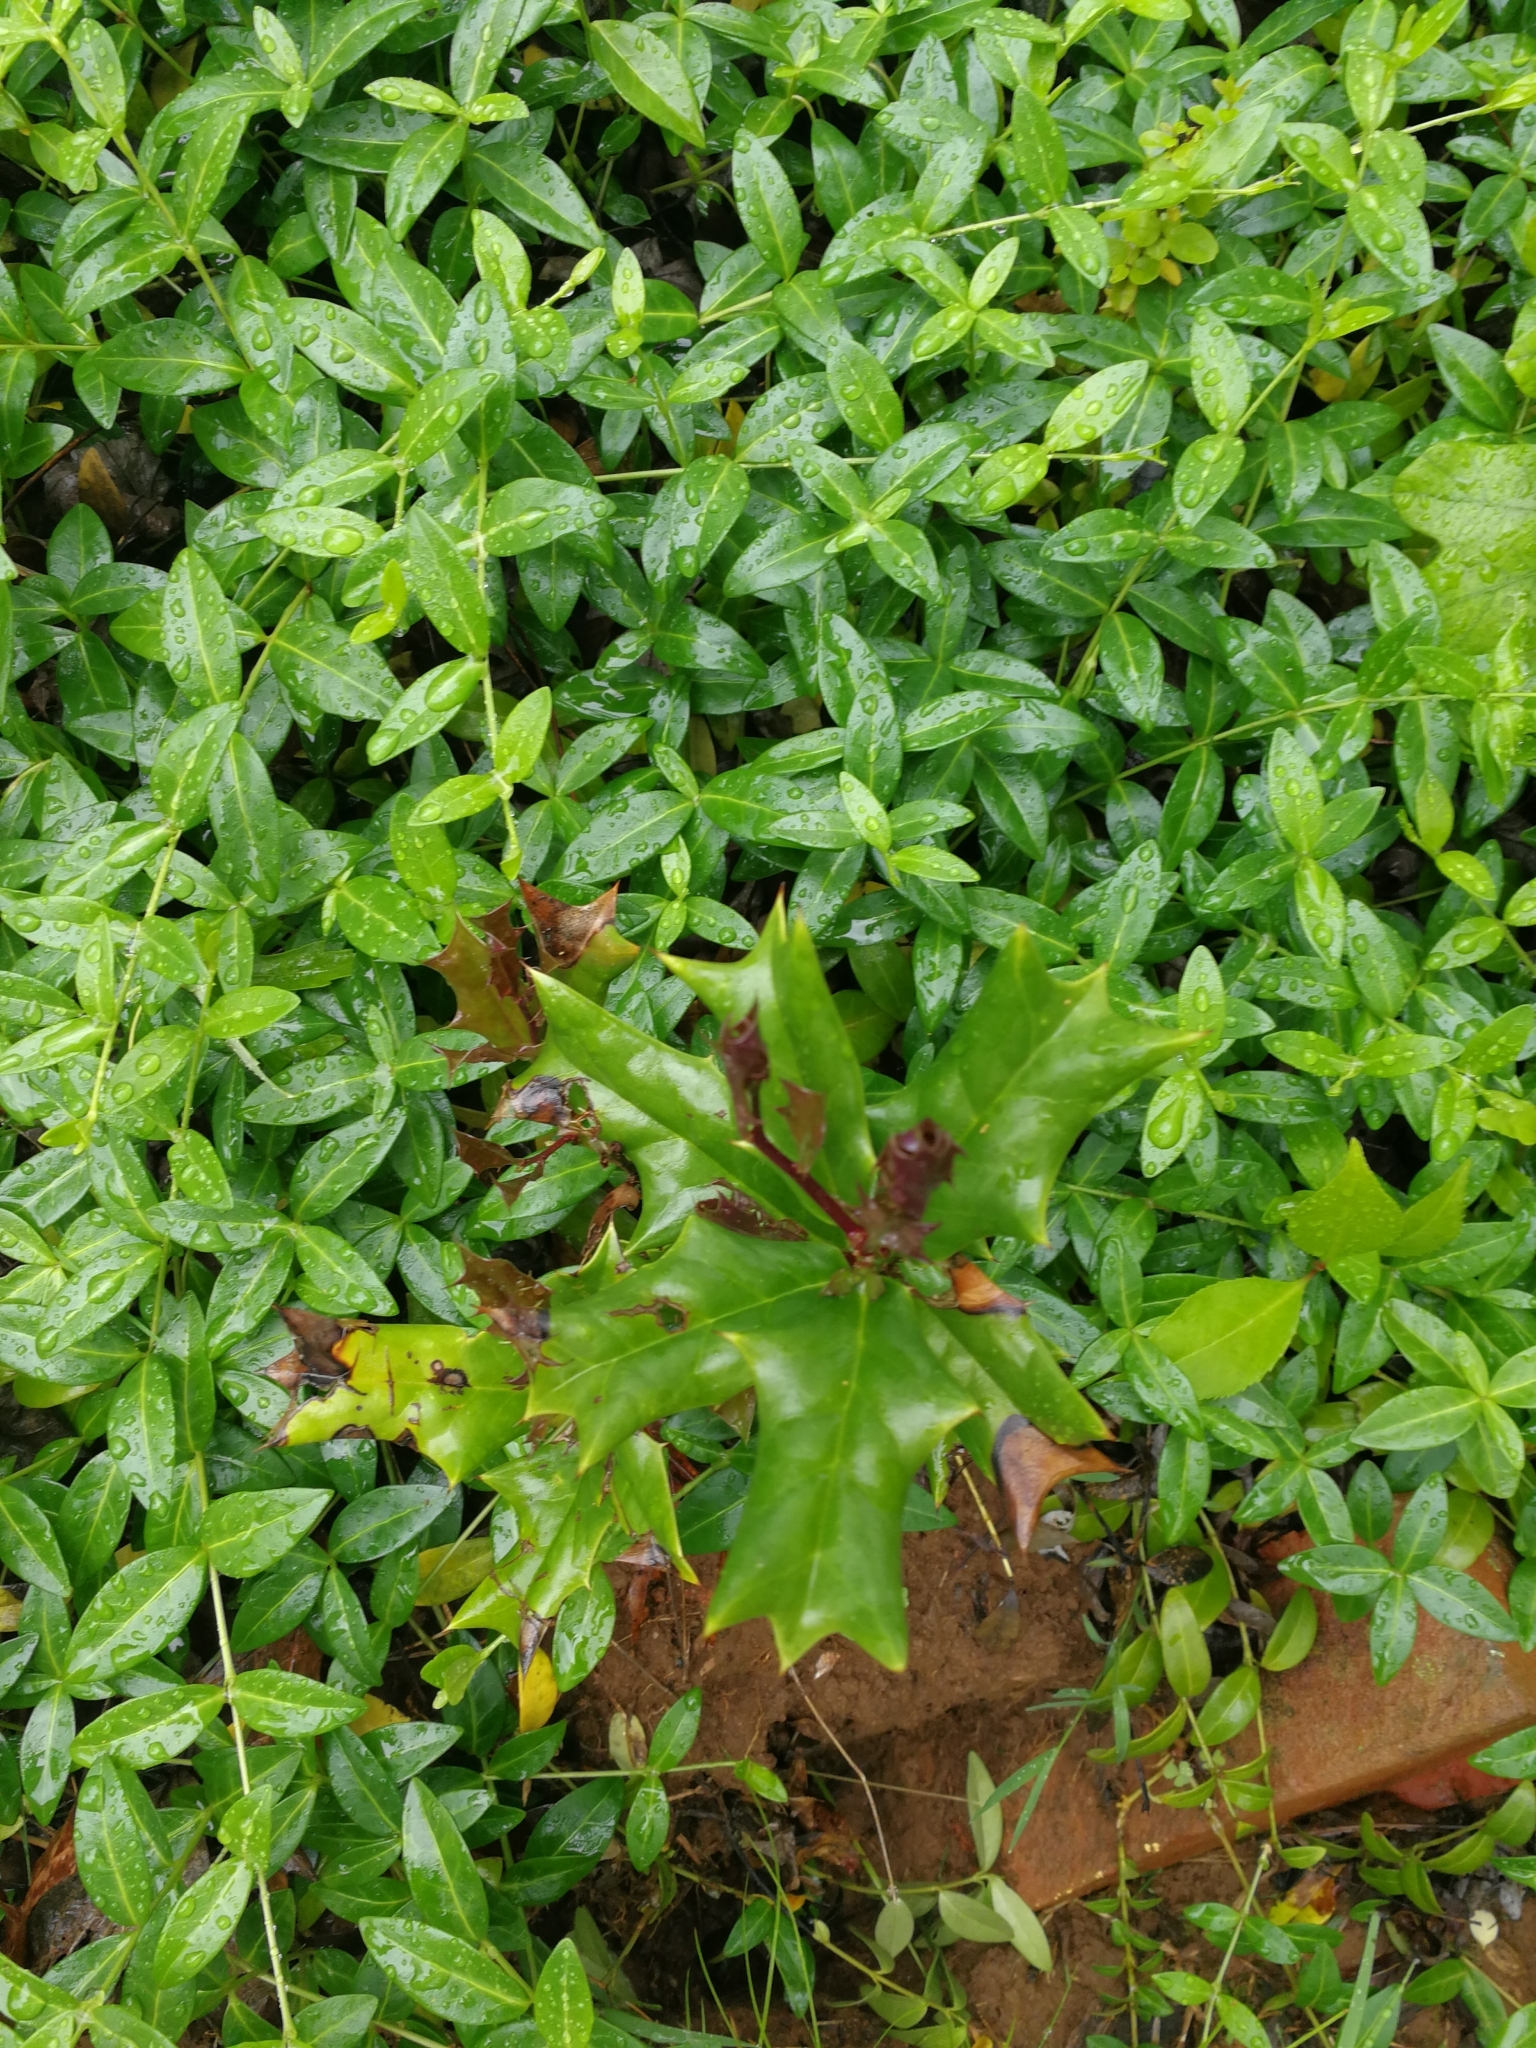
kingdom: Plantae
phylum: Tracheophyta
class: Magnoliopsida
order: Aquifoliales
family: Aquifoliaceae
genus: Ilex
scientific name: Ilex cornuta
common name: Chinese holly
